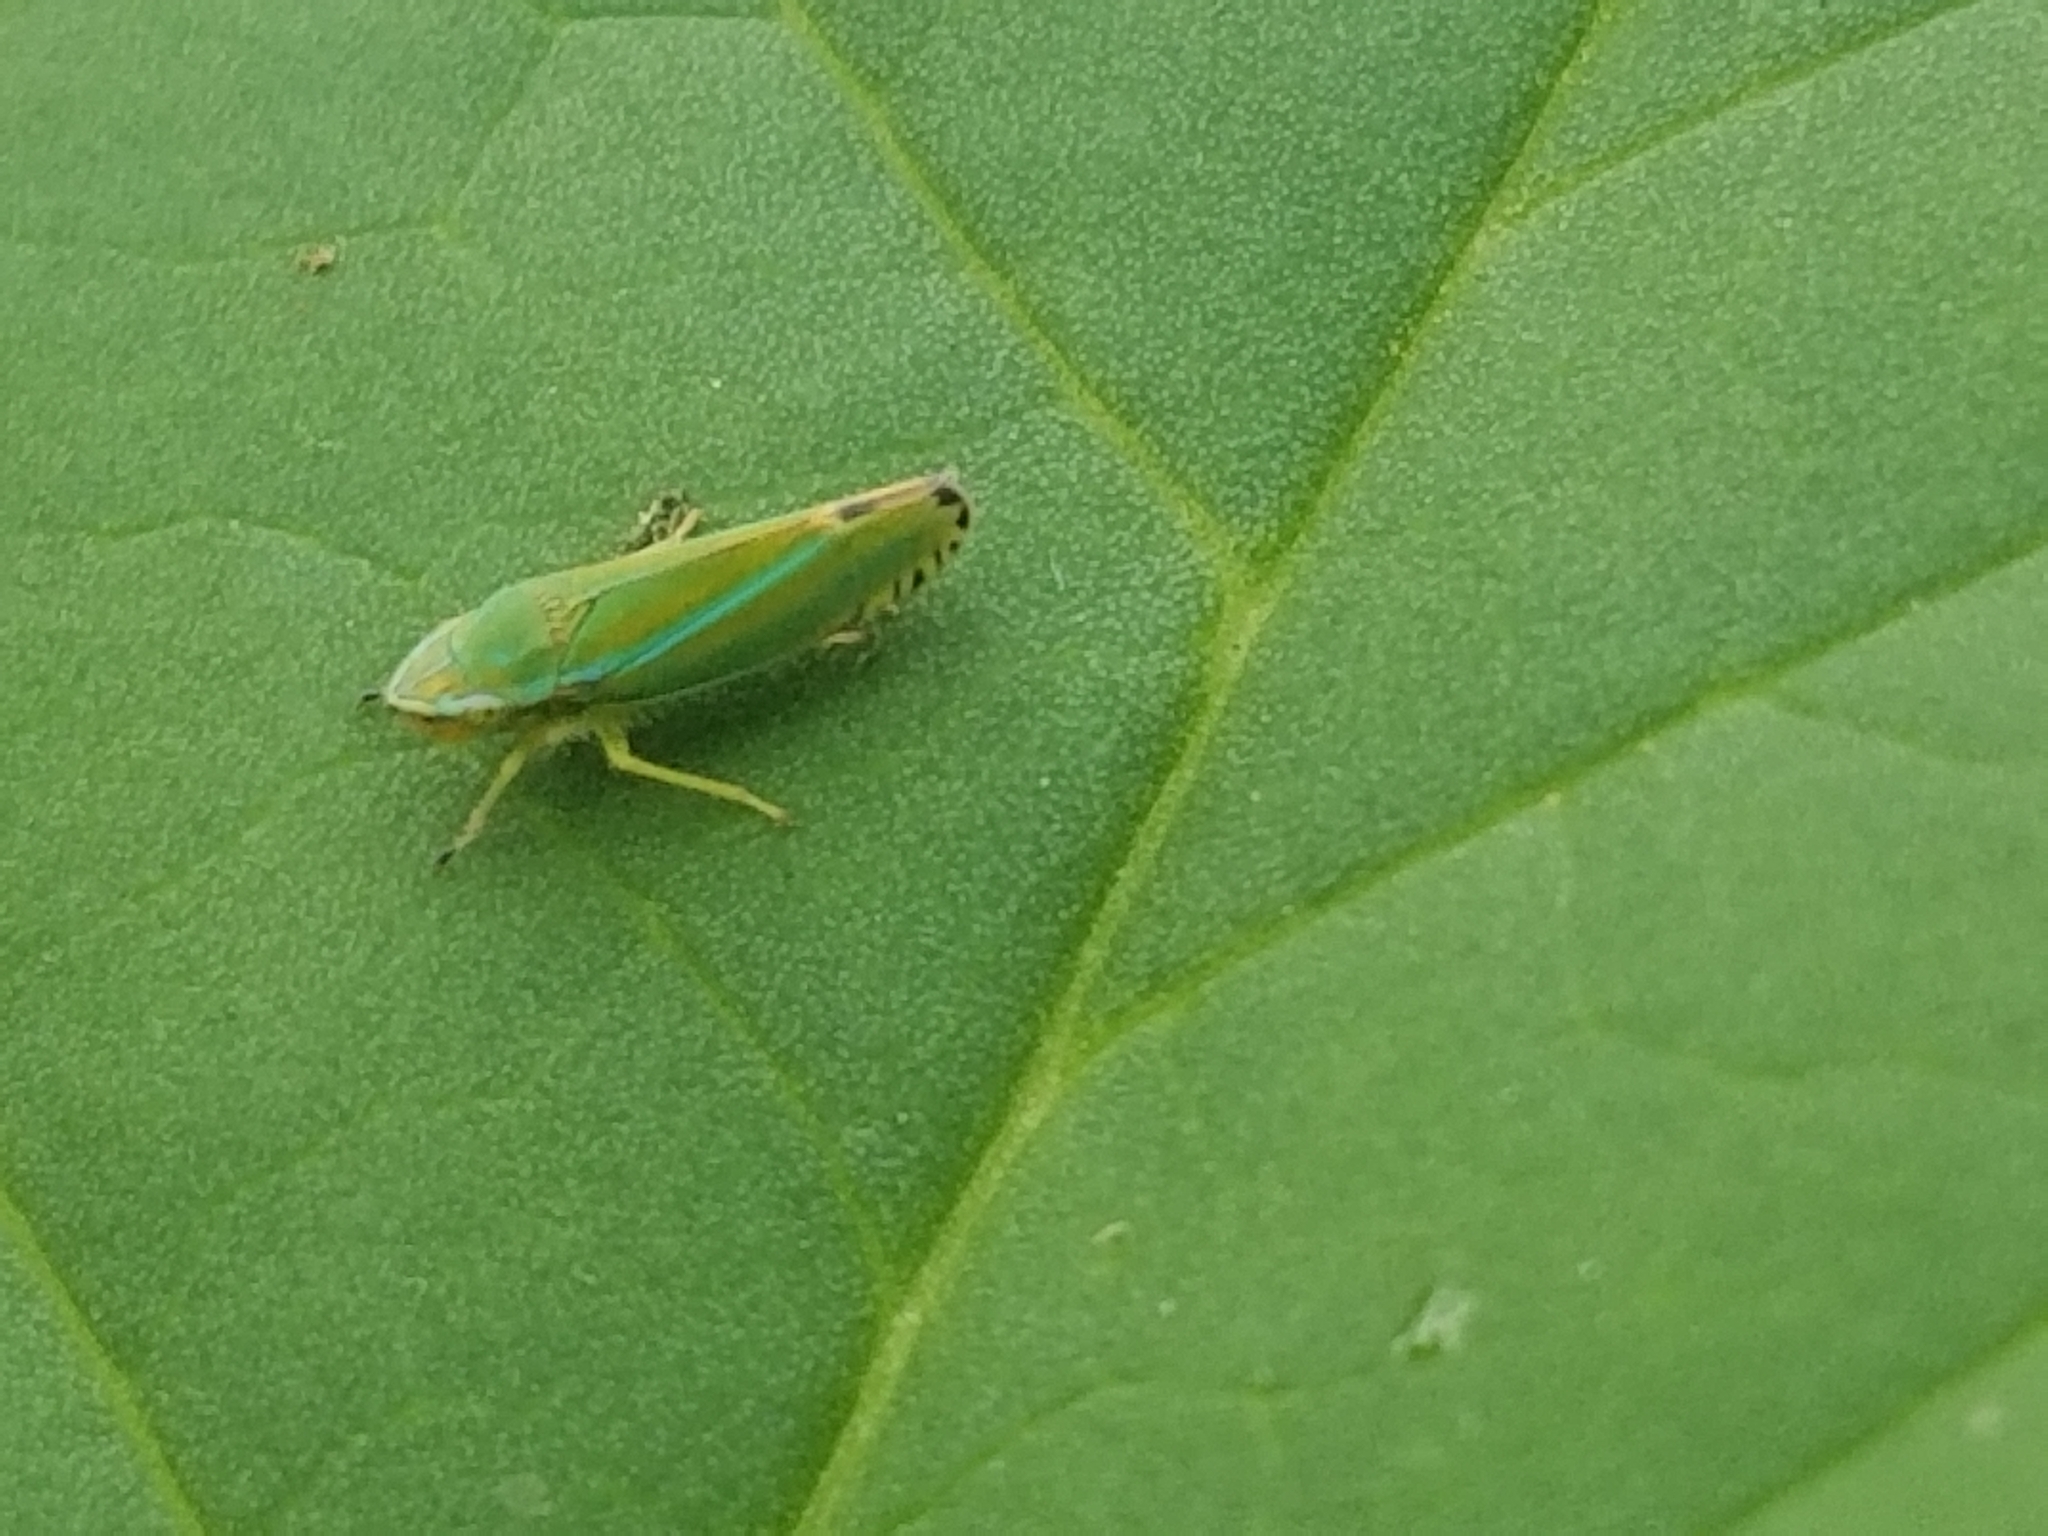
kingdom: Animalia
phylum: Arthropoda
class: Insecta
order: Hemiptera
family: Cicadellidae
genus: Graphocephala
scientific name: Graphocephala versuta
